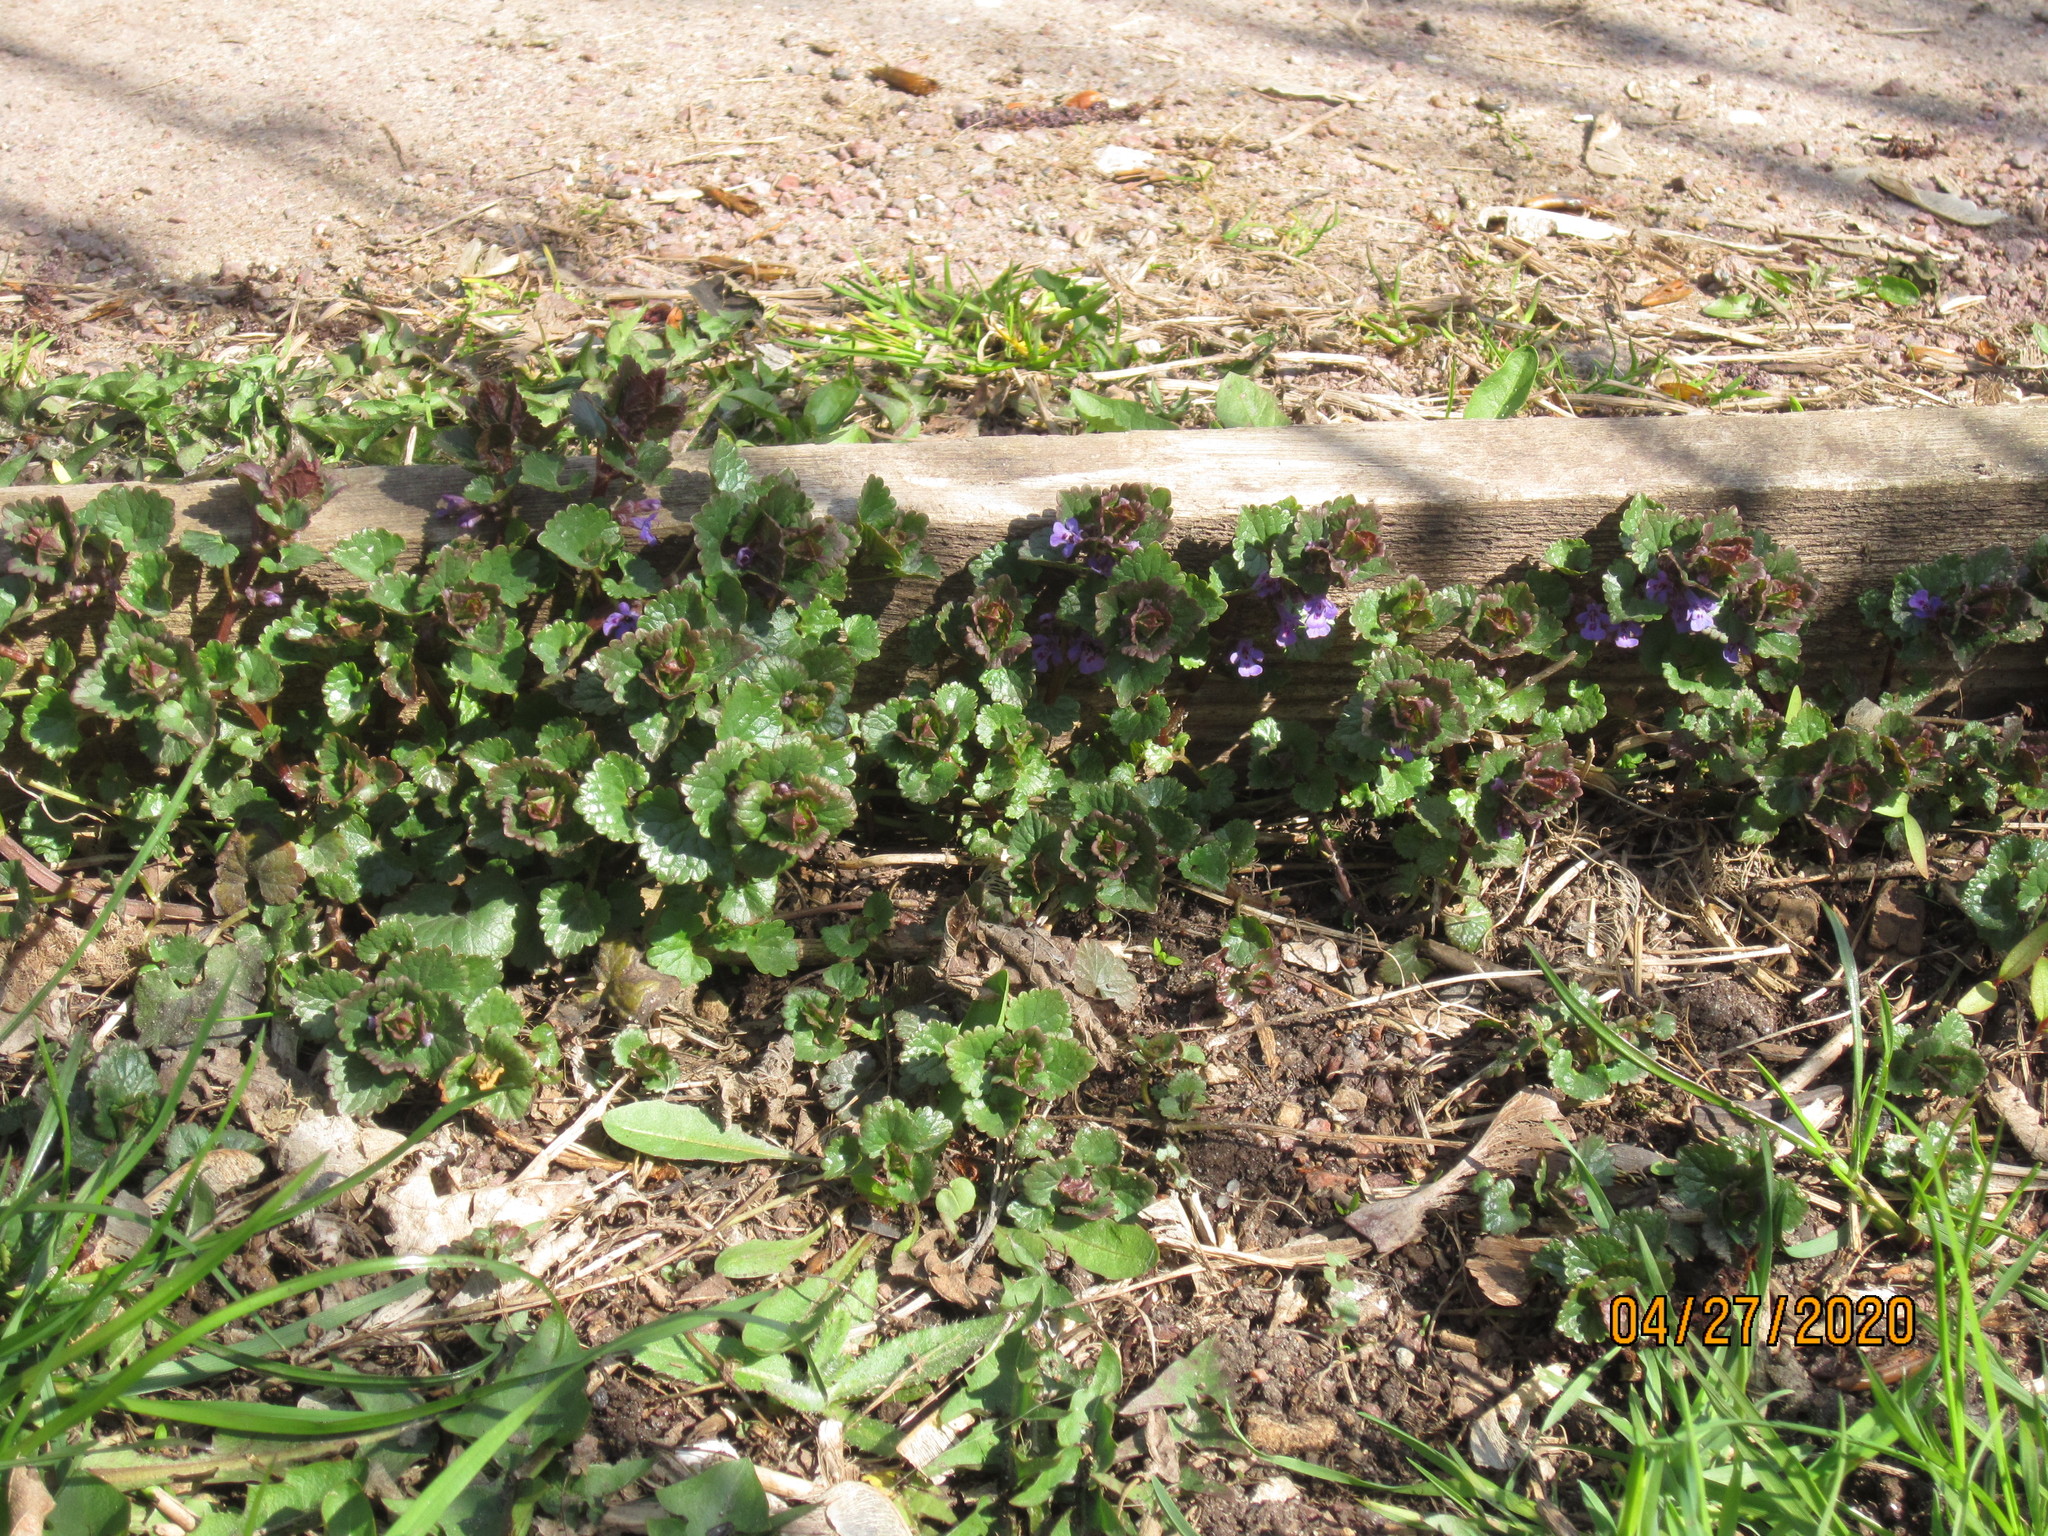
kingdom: Plantae
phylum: Tracheophyta
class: Magnoliopsida
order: Lamiales
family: Lamiaceae
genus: Glechoma
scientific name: Glechoma hederacea
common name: Ground ivy
